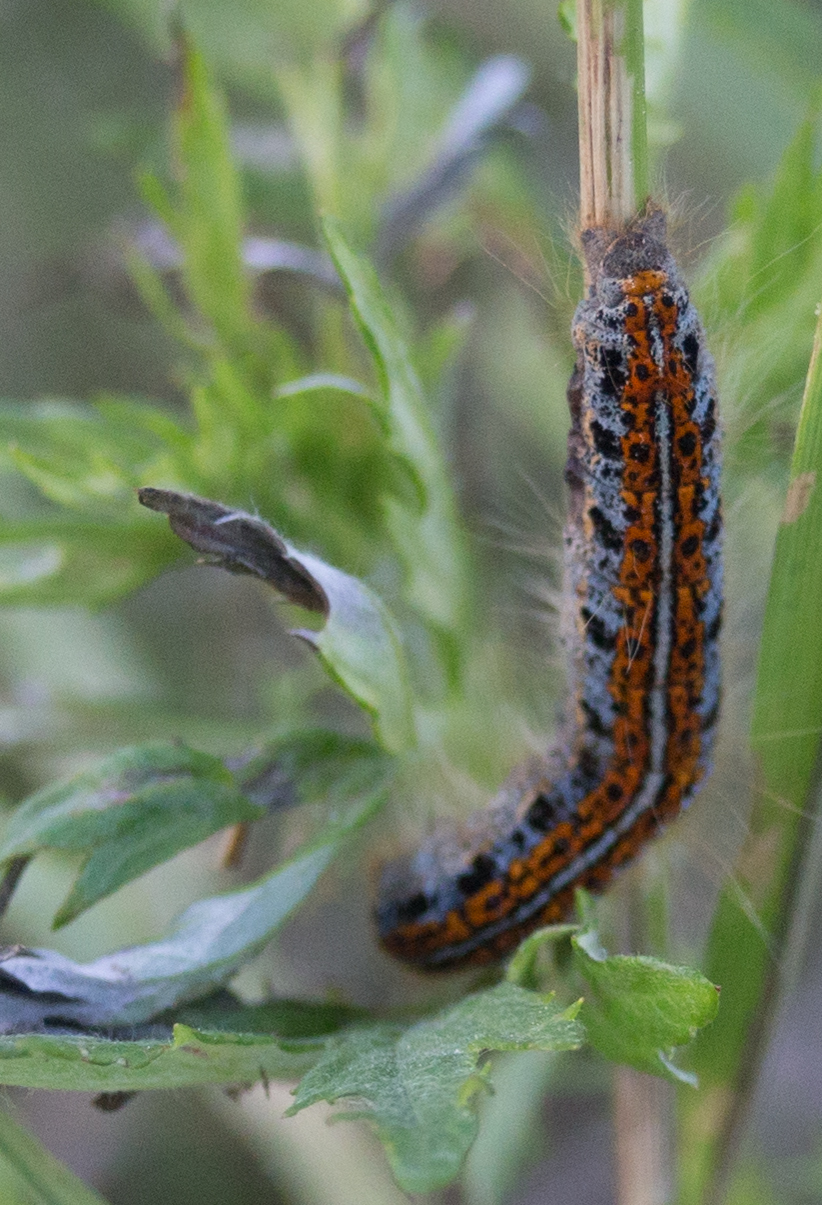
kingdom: Animalia
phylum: Arthropoda
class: Insecta
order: Lepidoptera
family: Lasiocampidae
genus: Malacosoma
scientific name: Malacosoma castrense
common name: Ground lackey
